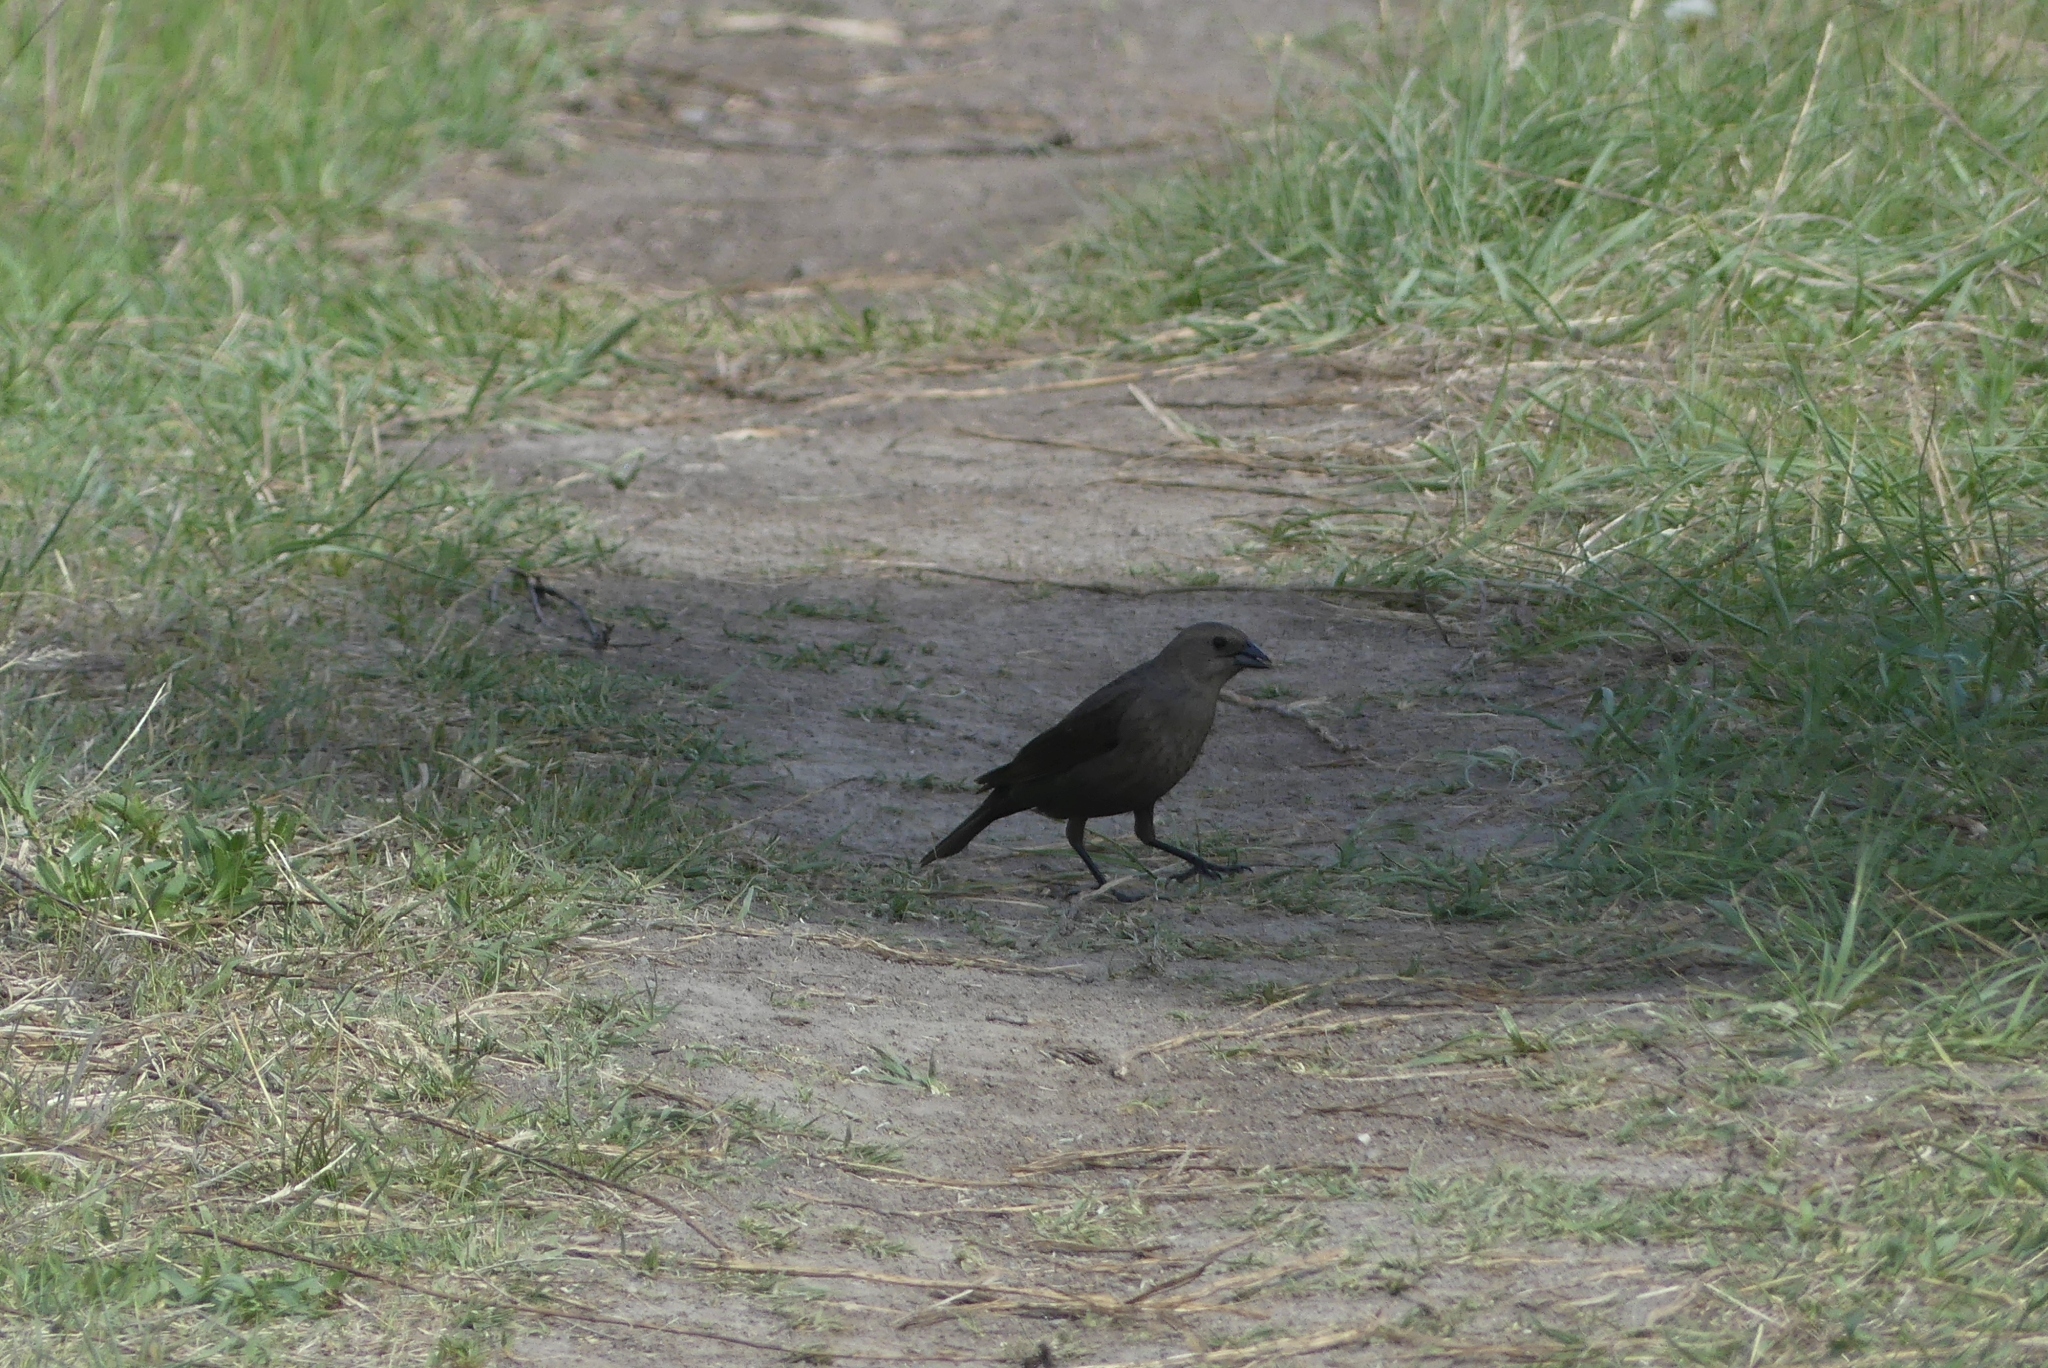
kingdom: Animalia
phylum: Chordata
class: Aves
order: Passeriformes
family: Icteridae
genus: Molothrus
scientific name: Molothrus ater
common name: Brown-headed cowbird
